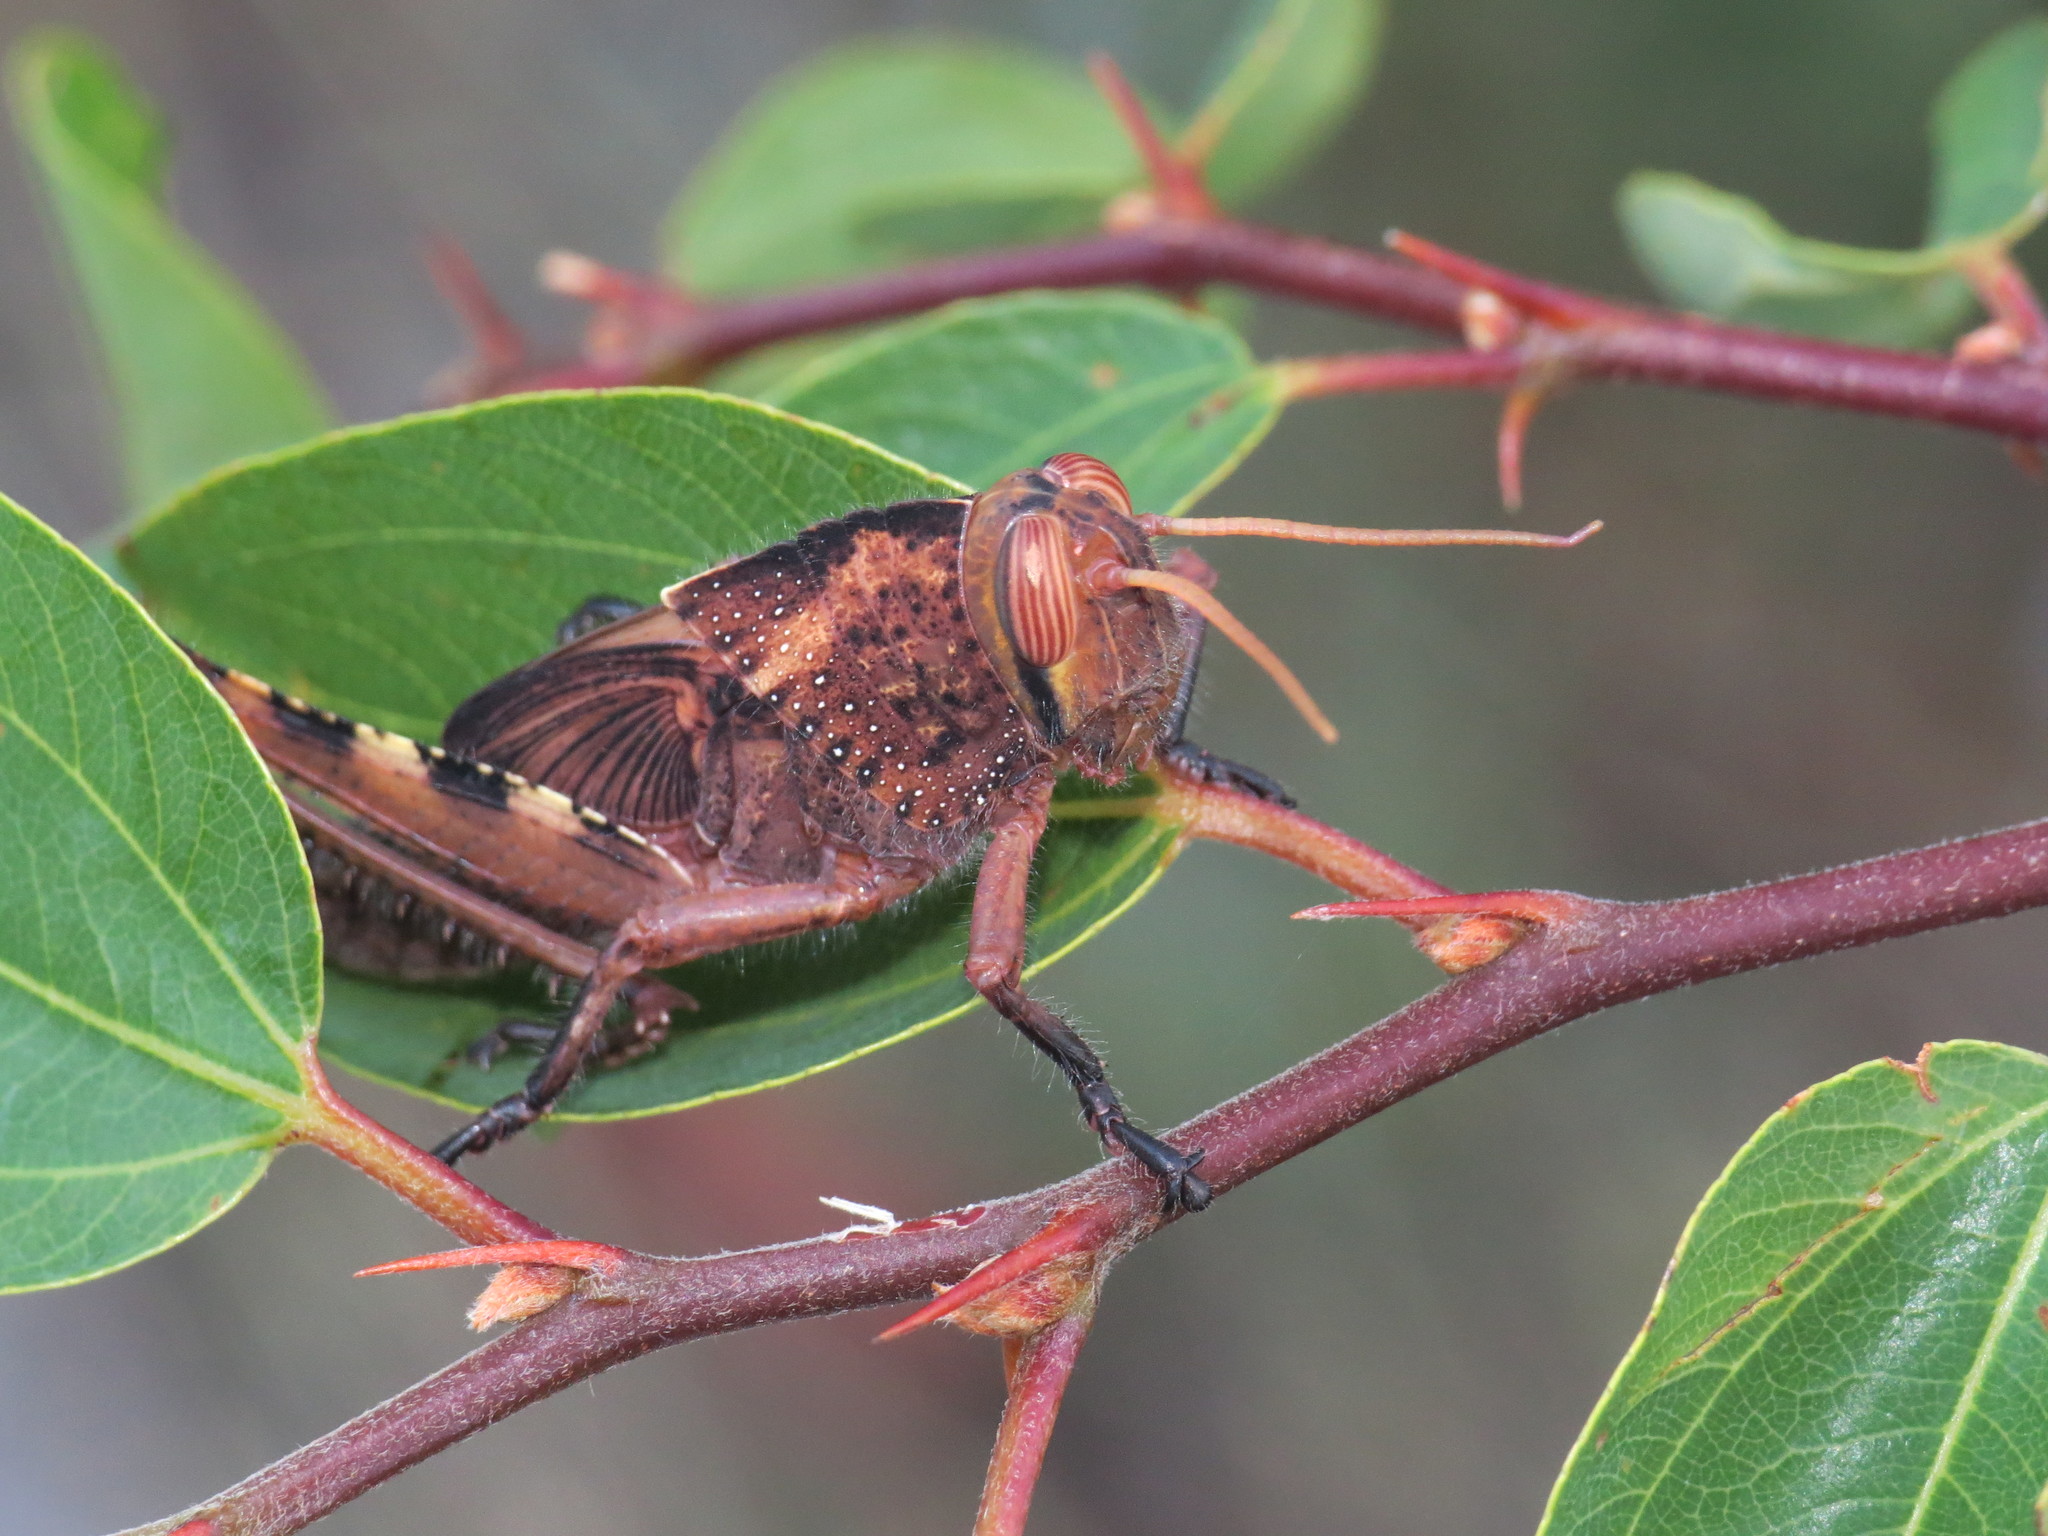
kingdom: Animalia
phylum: Arthropoda
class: Insecta
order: Orthoptera
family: Acrididae
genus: Anacridium
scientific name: Anacridium aegyptium
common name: Egyptian grasshopper
